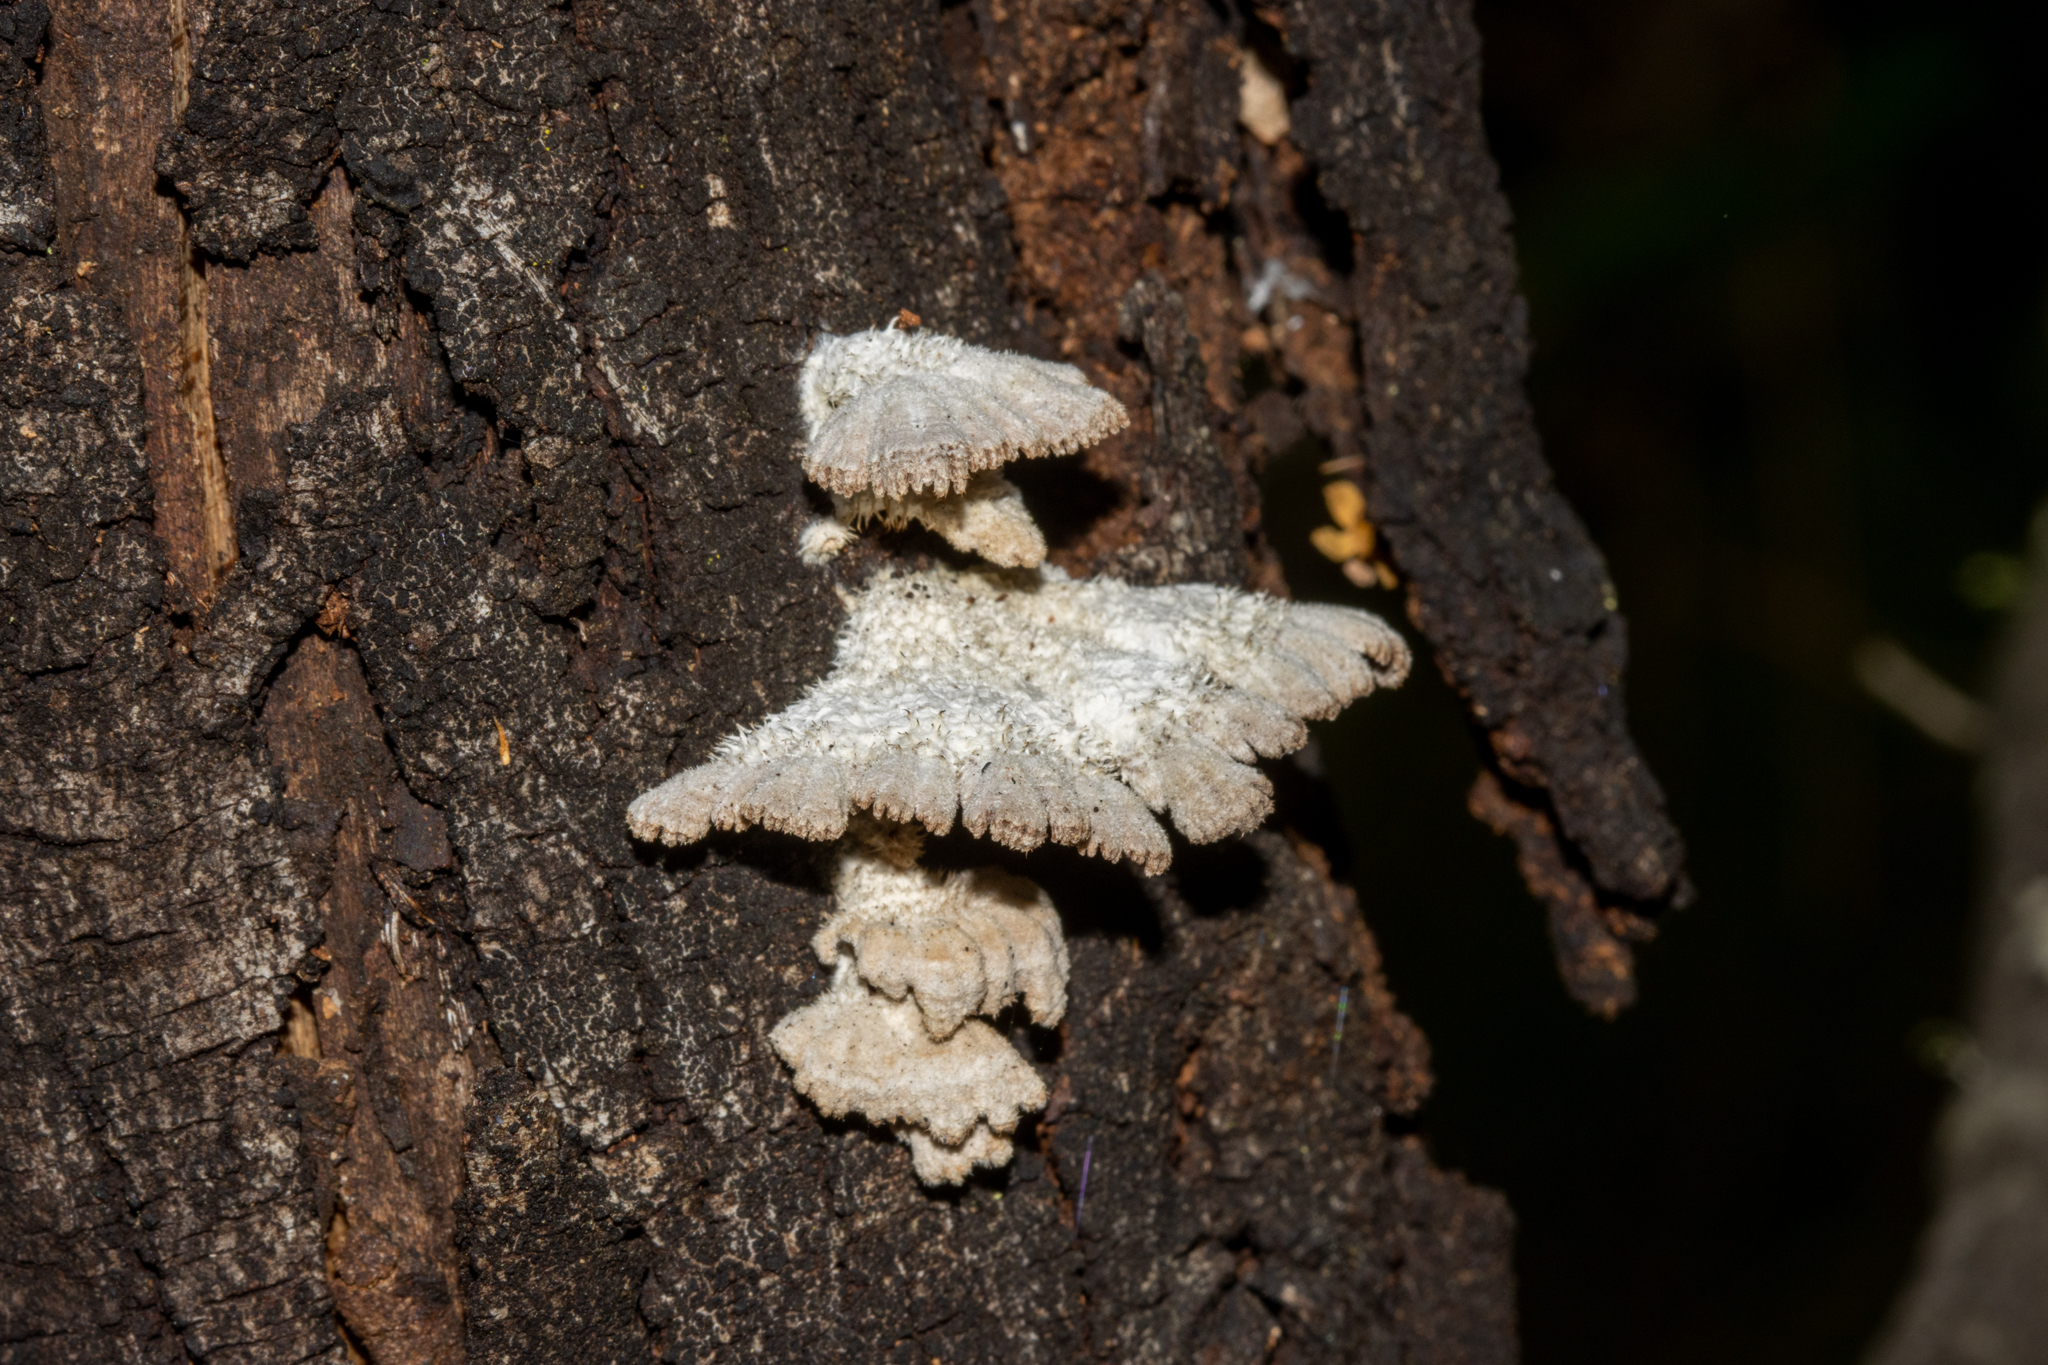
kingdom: Fungi
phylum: Basidiomycota
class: Agaricomycetes
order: Agaricales
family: Schizophyllaceae
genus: Schizophyllum
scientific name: Schizophyllum commune
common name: Common porecrust
